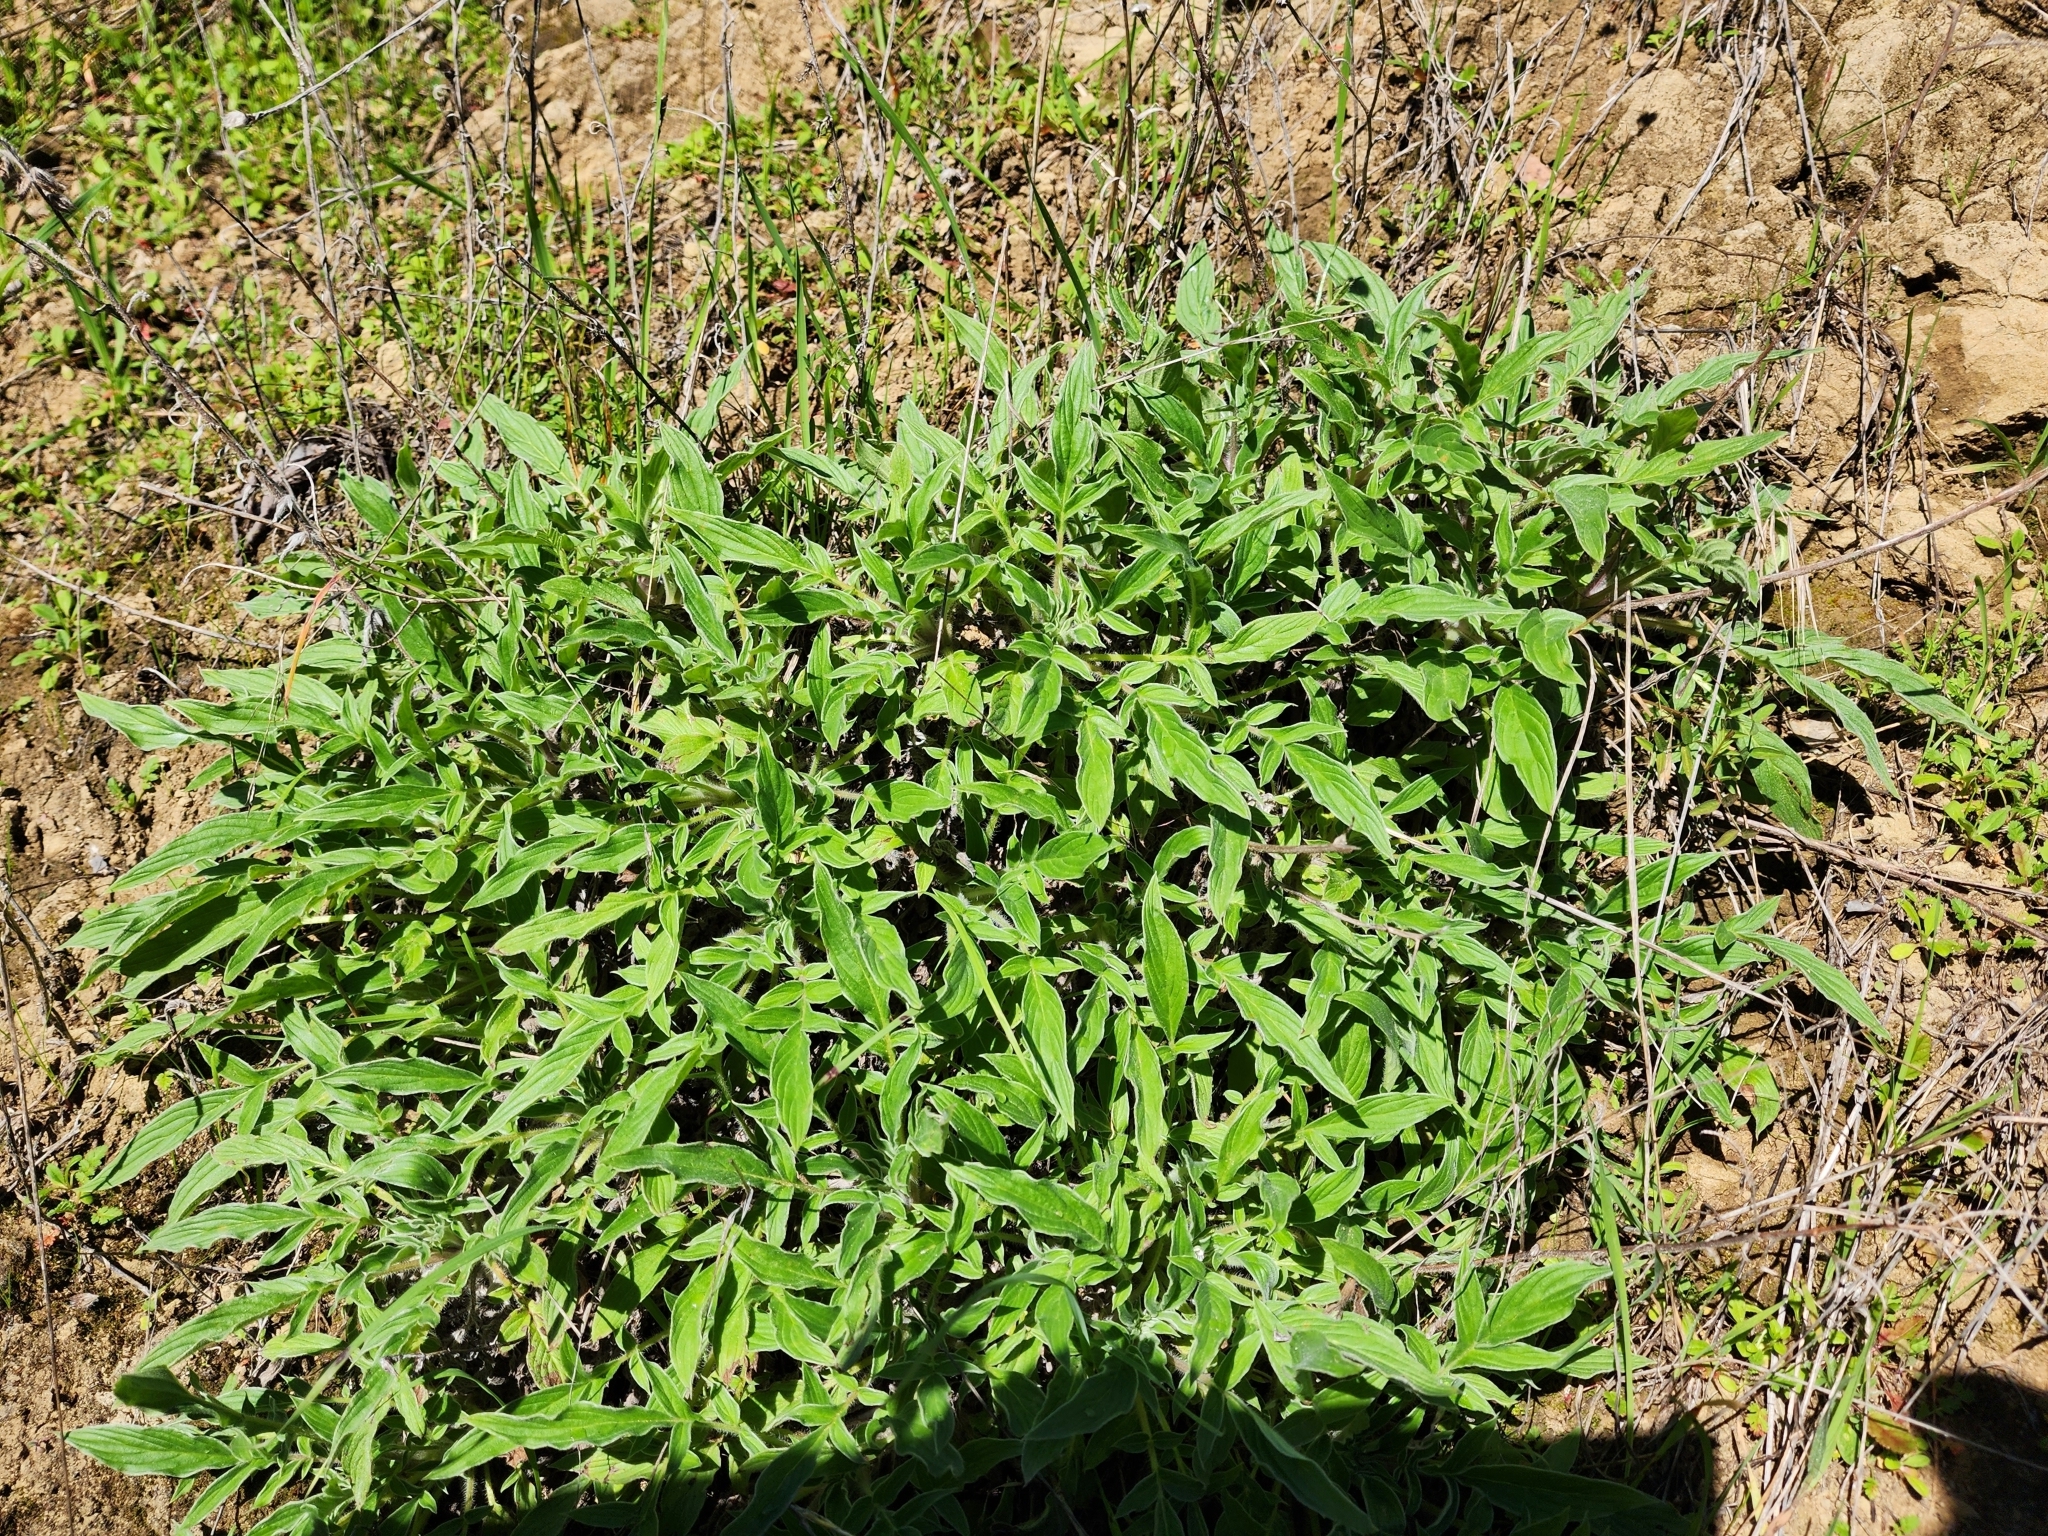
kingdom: Plantae
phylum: Tracheophyta
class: Magnoliopsida
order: Boraginales
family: Hydrophyllaceae
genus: Phacelia
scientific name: Phacelia imbricata
